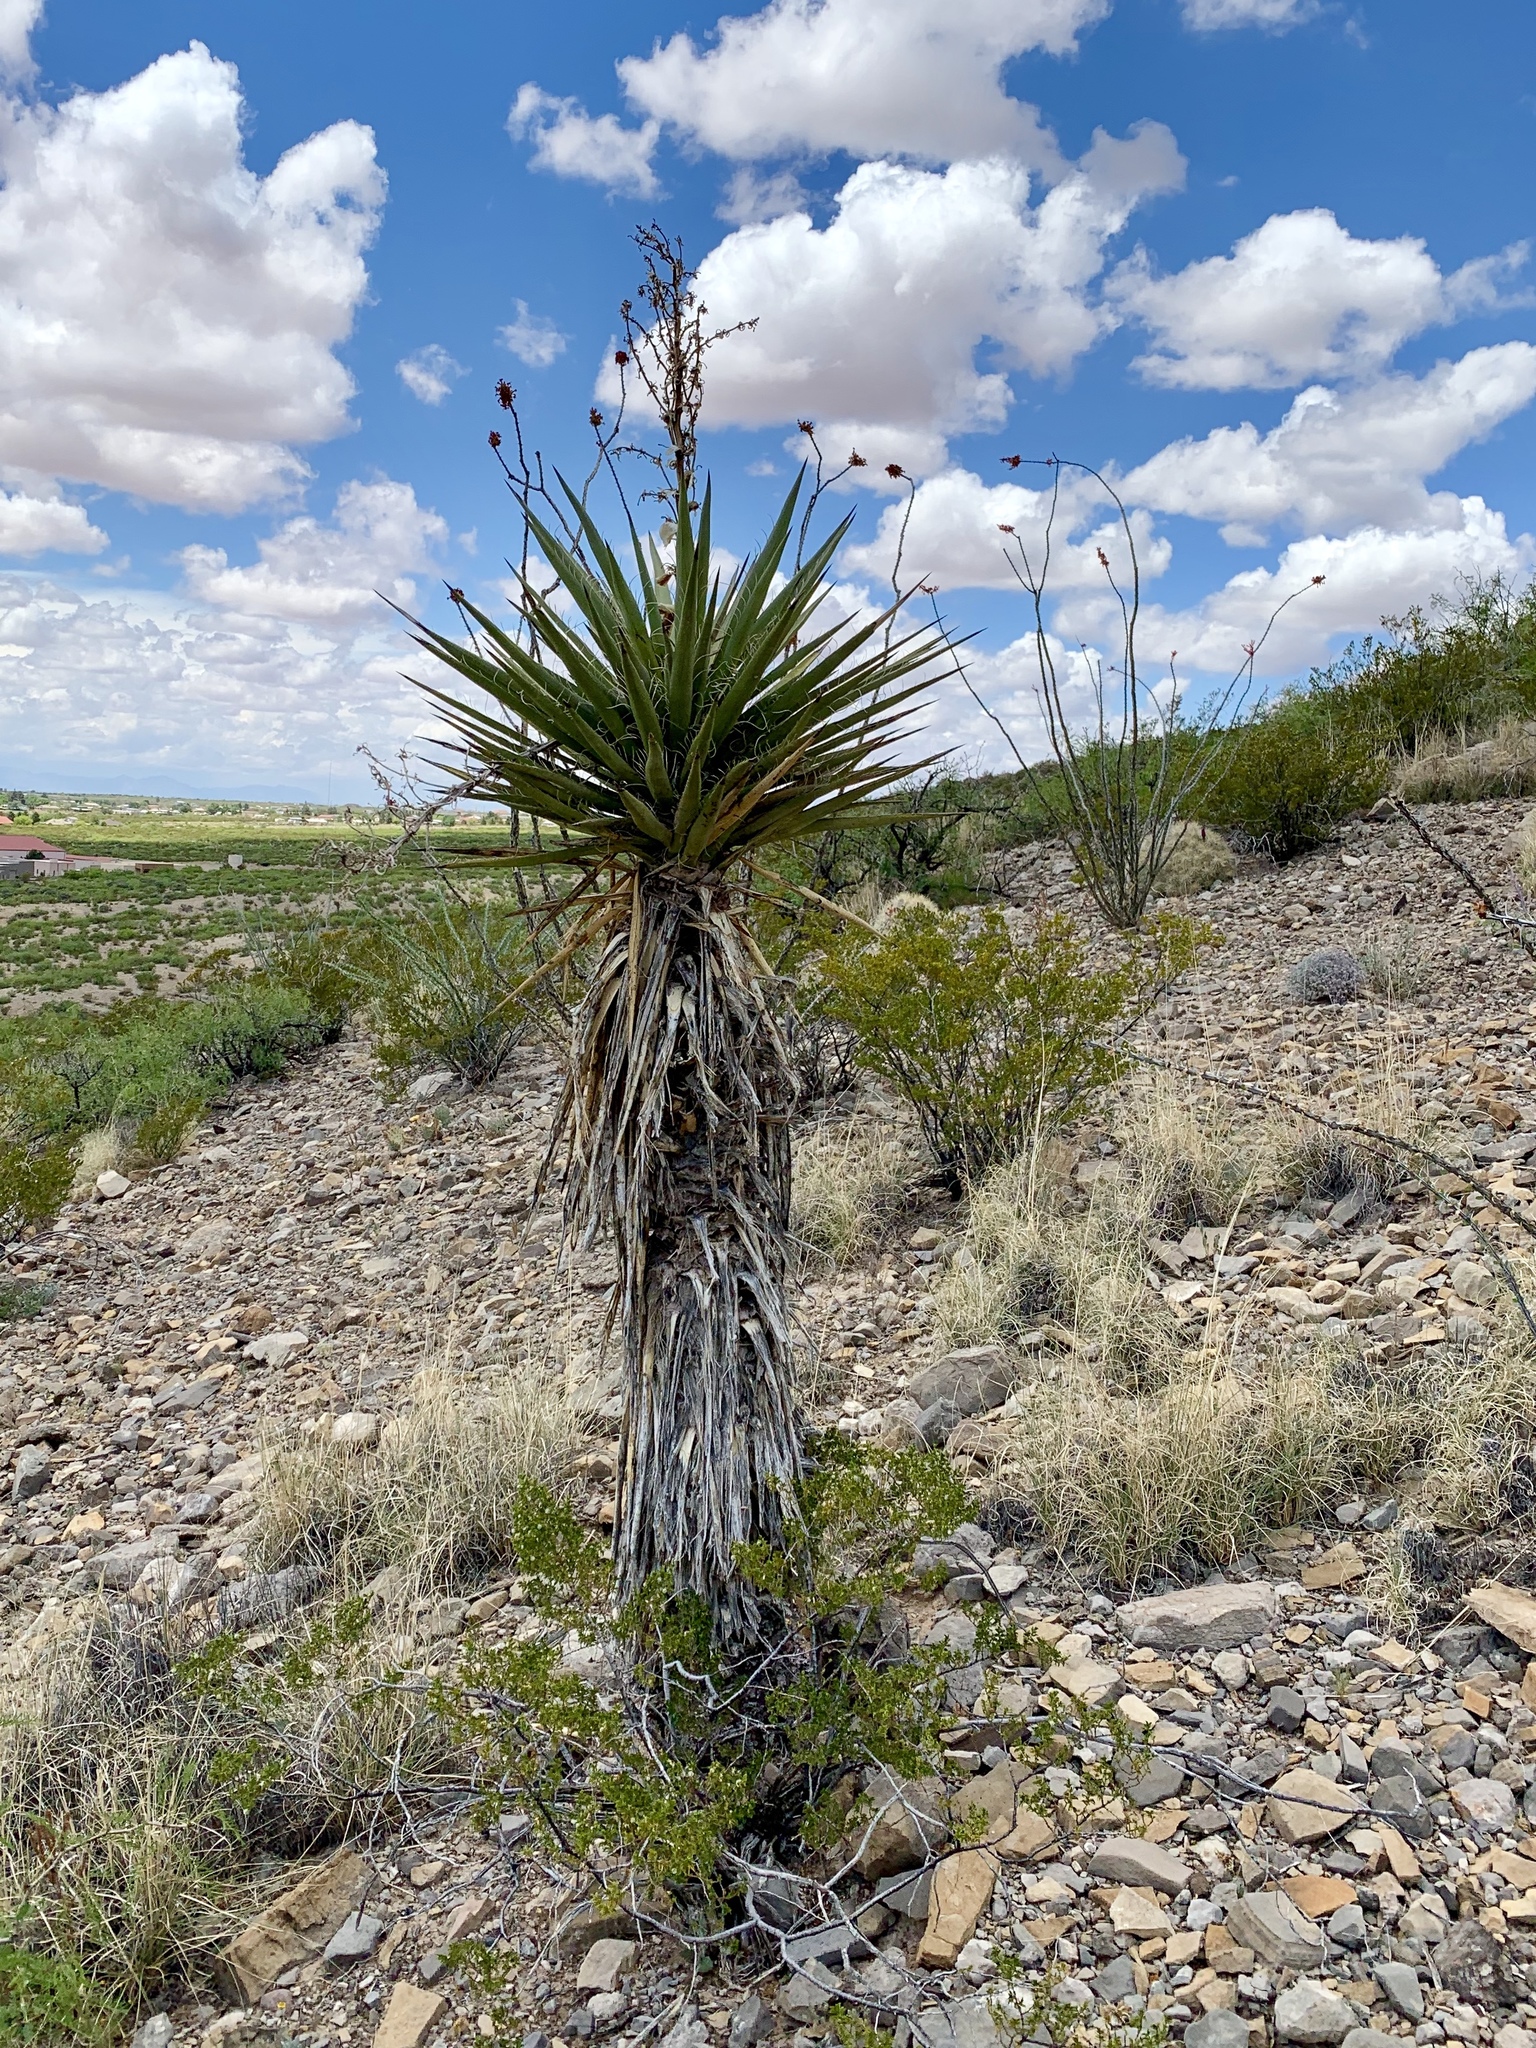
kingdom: Plantae
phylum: Tracheophyta
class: Liliopsida
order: Asparagales
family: Asparagaceae
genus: Yucca
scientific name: Yucca treculiana
